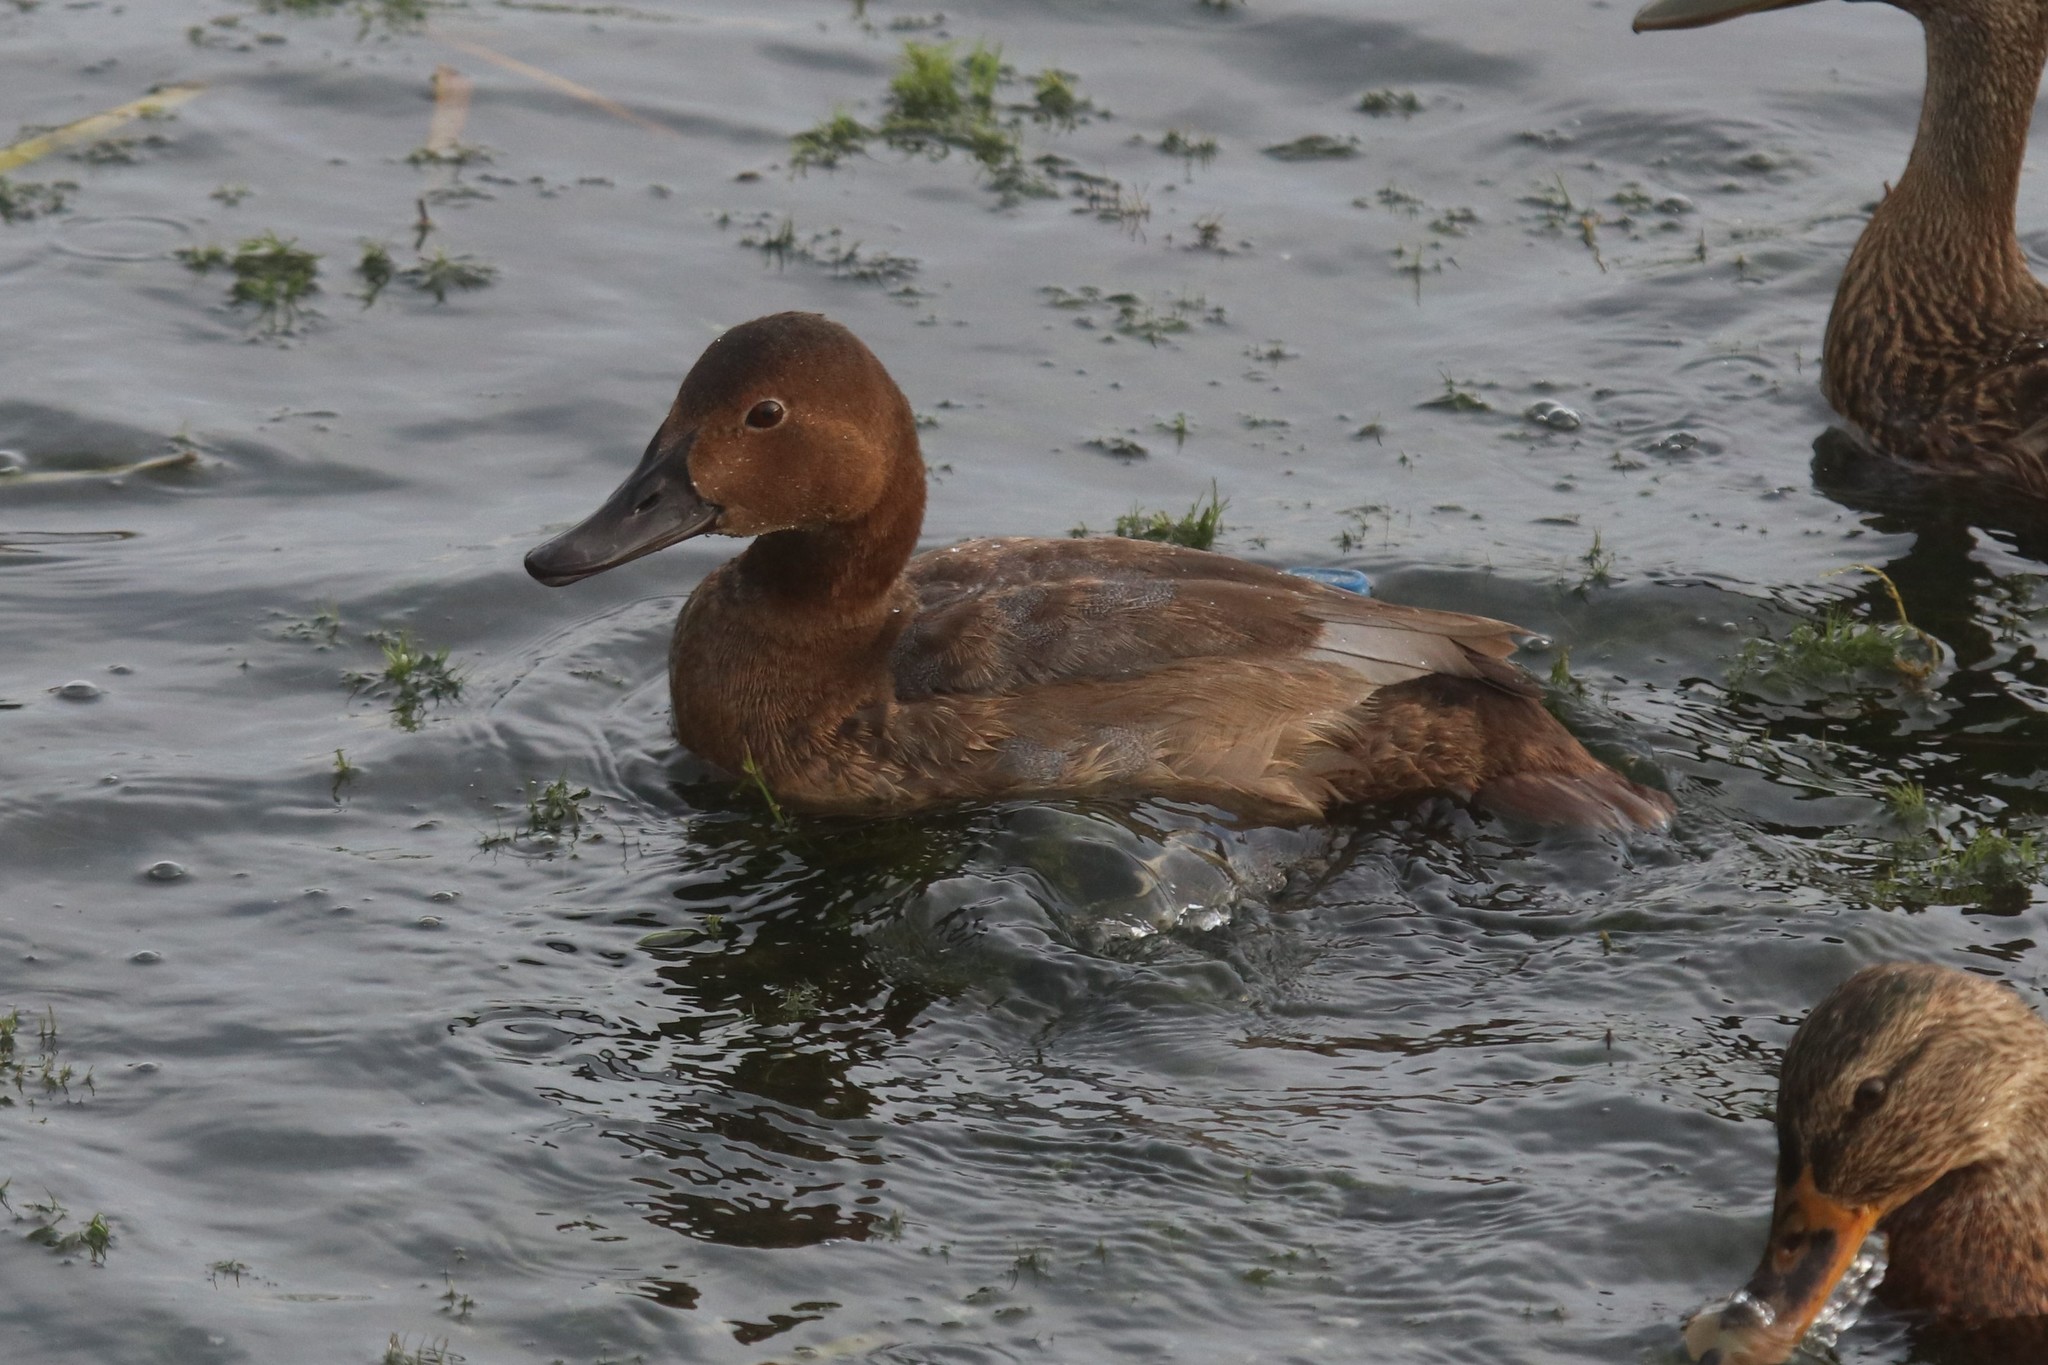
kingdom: Animalia
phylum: Chordata
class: Aves
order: Anseriformes
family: Anatidae
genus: Aythya
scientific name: Aythya ferina
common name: Common pochard
